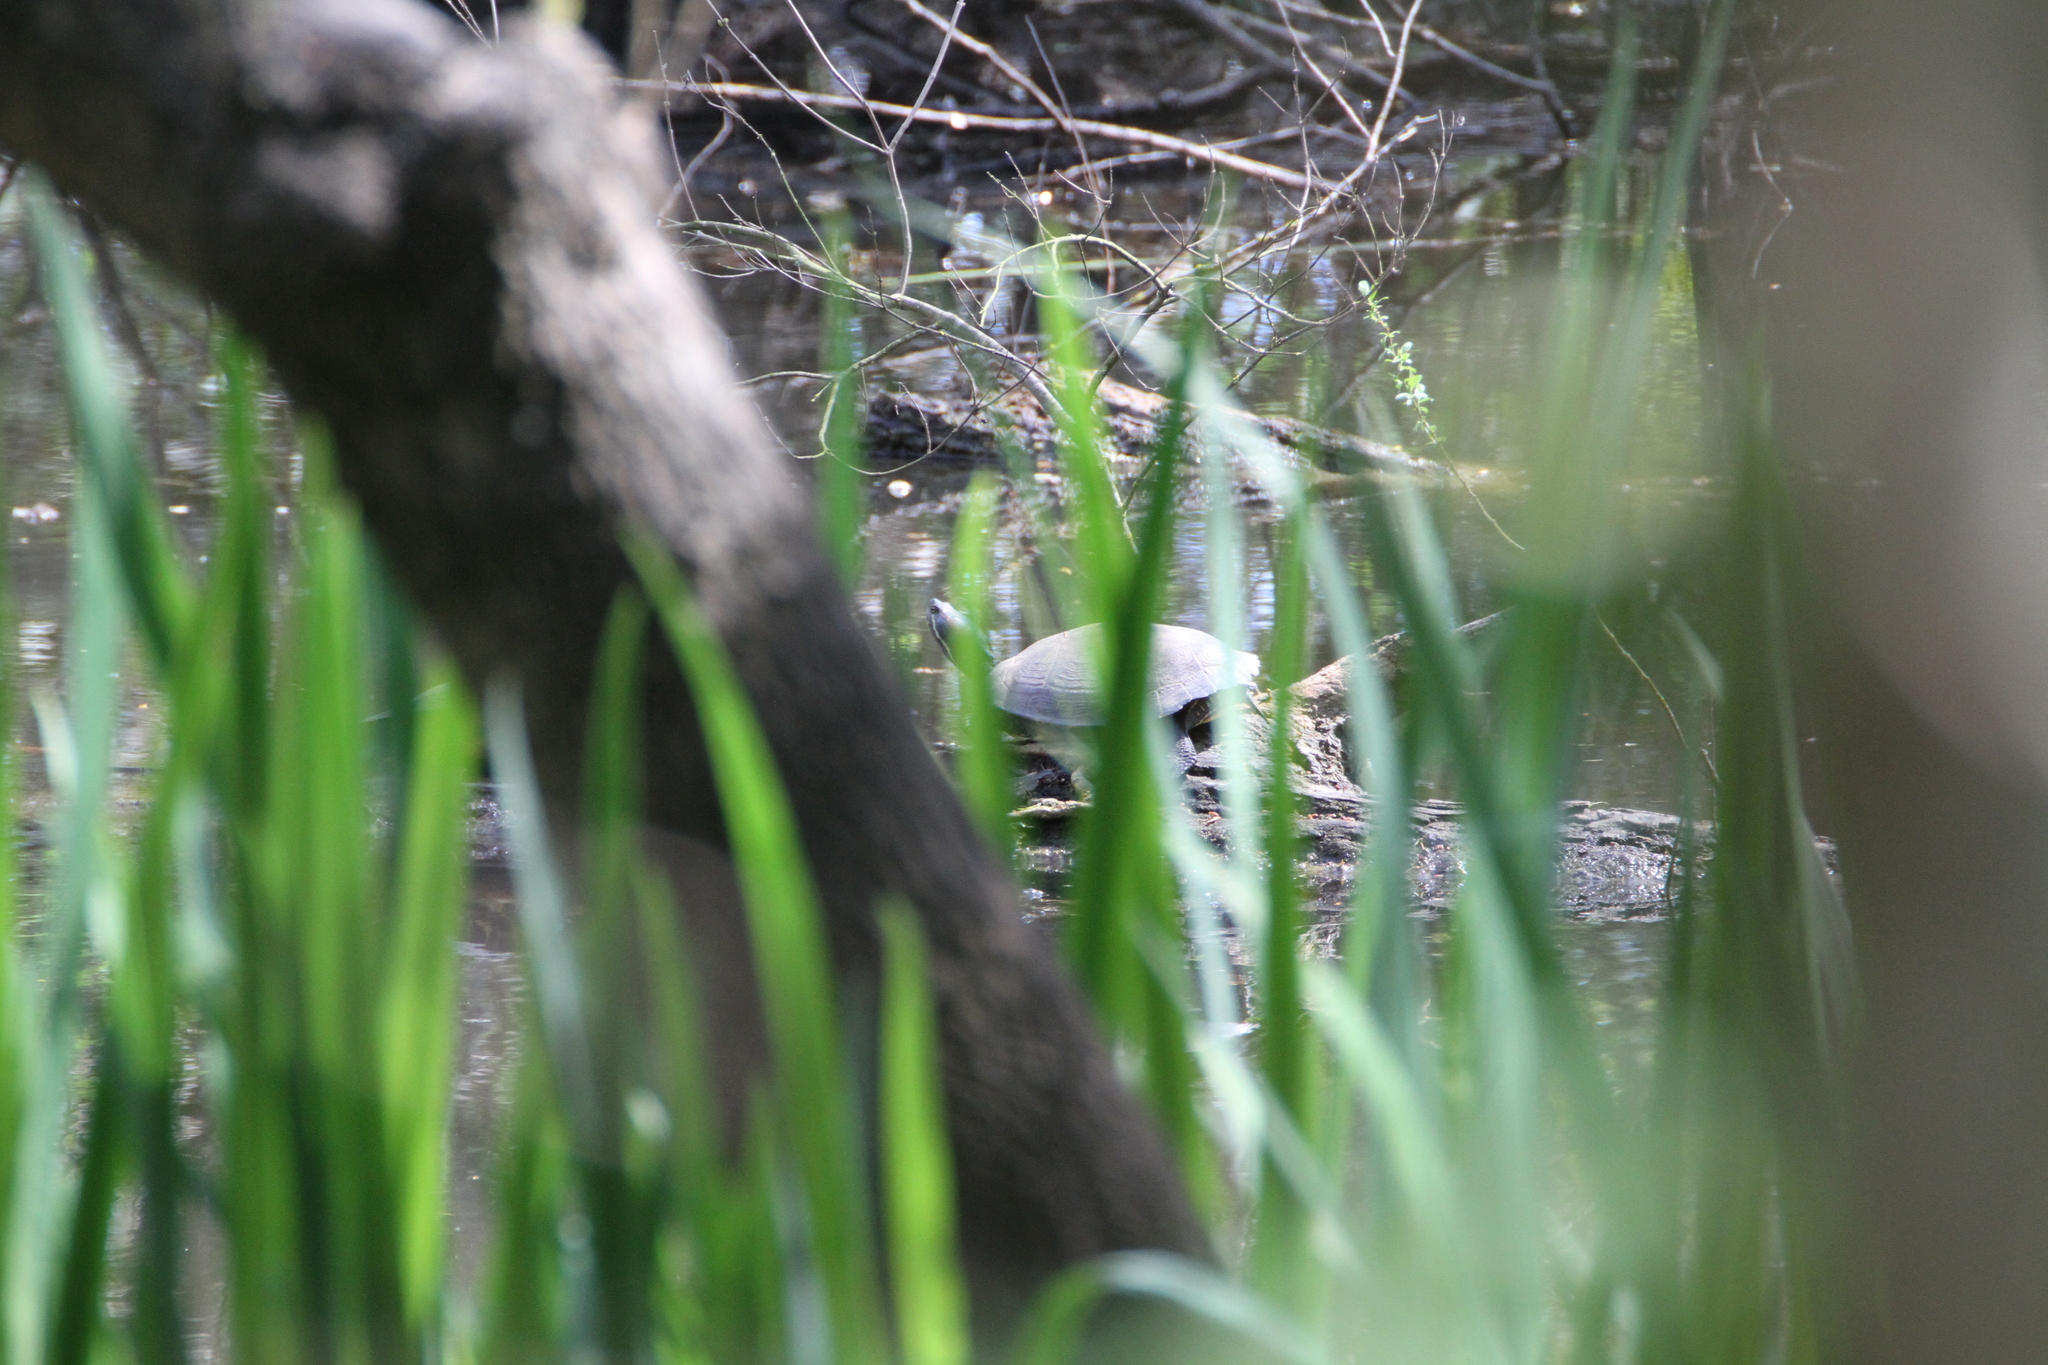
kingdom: Animalia
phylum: Chordata
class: Testudines
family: Emydidae
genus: Trachemys
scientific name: Trachemys scripta
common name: Slider
